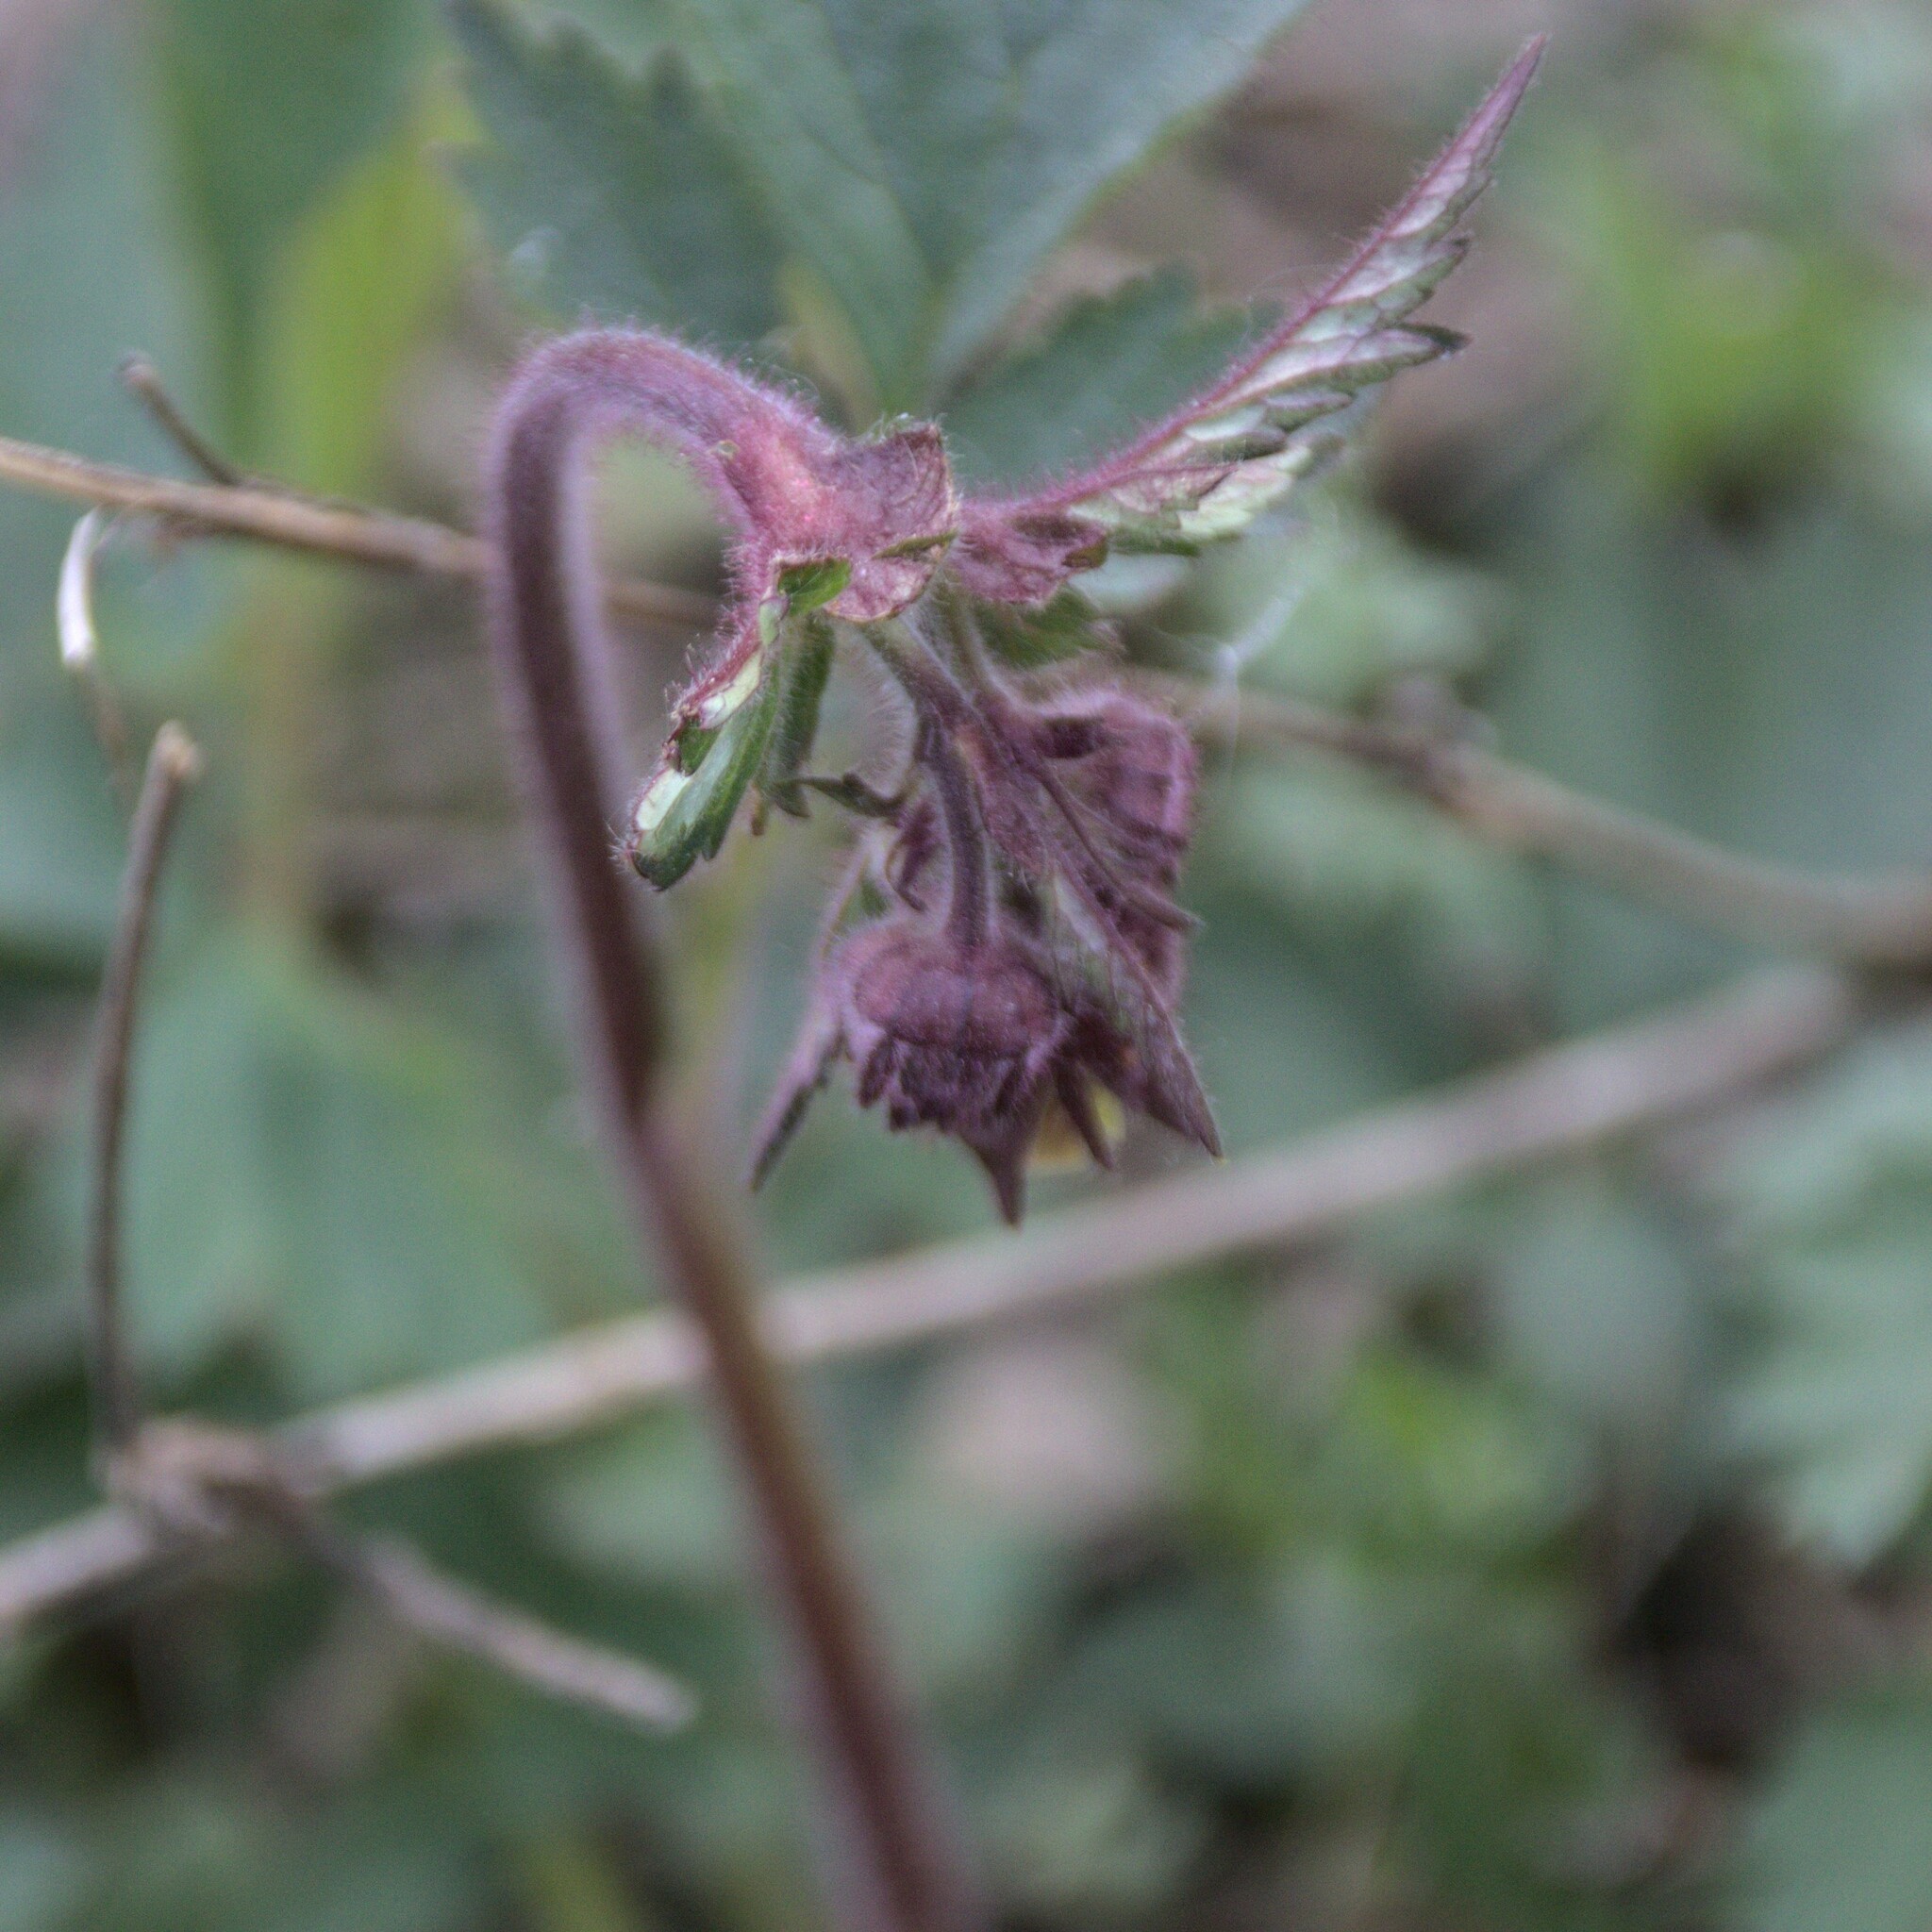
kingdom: Plantae
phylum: Tracheophyta
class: Magnoliopsida
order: Rosales
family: Rosaceae
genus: Geum
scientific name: Geum rivale
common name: Water avens
